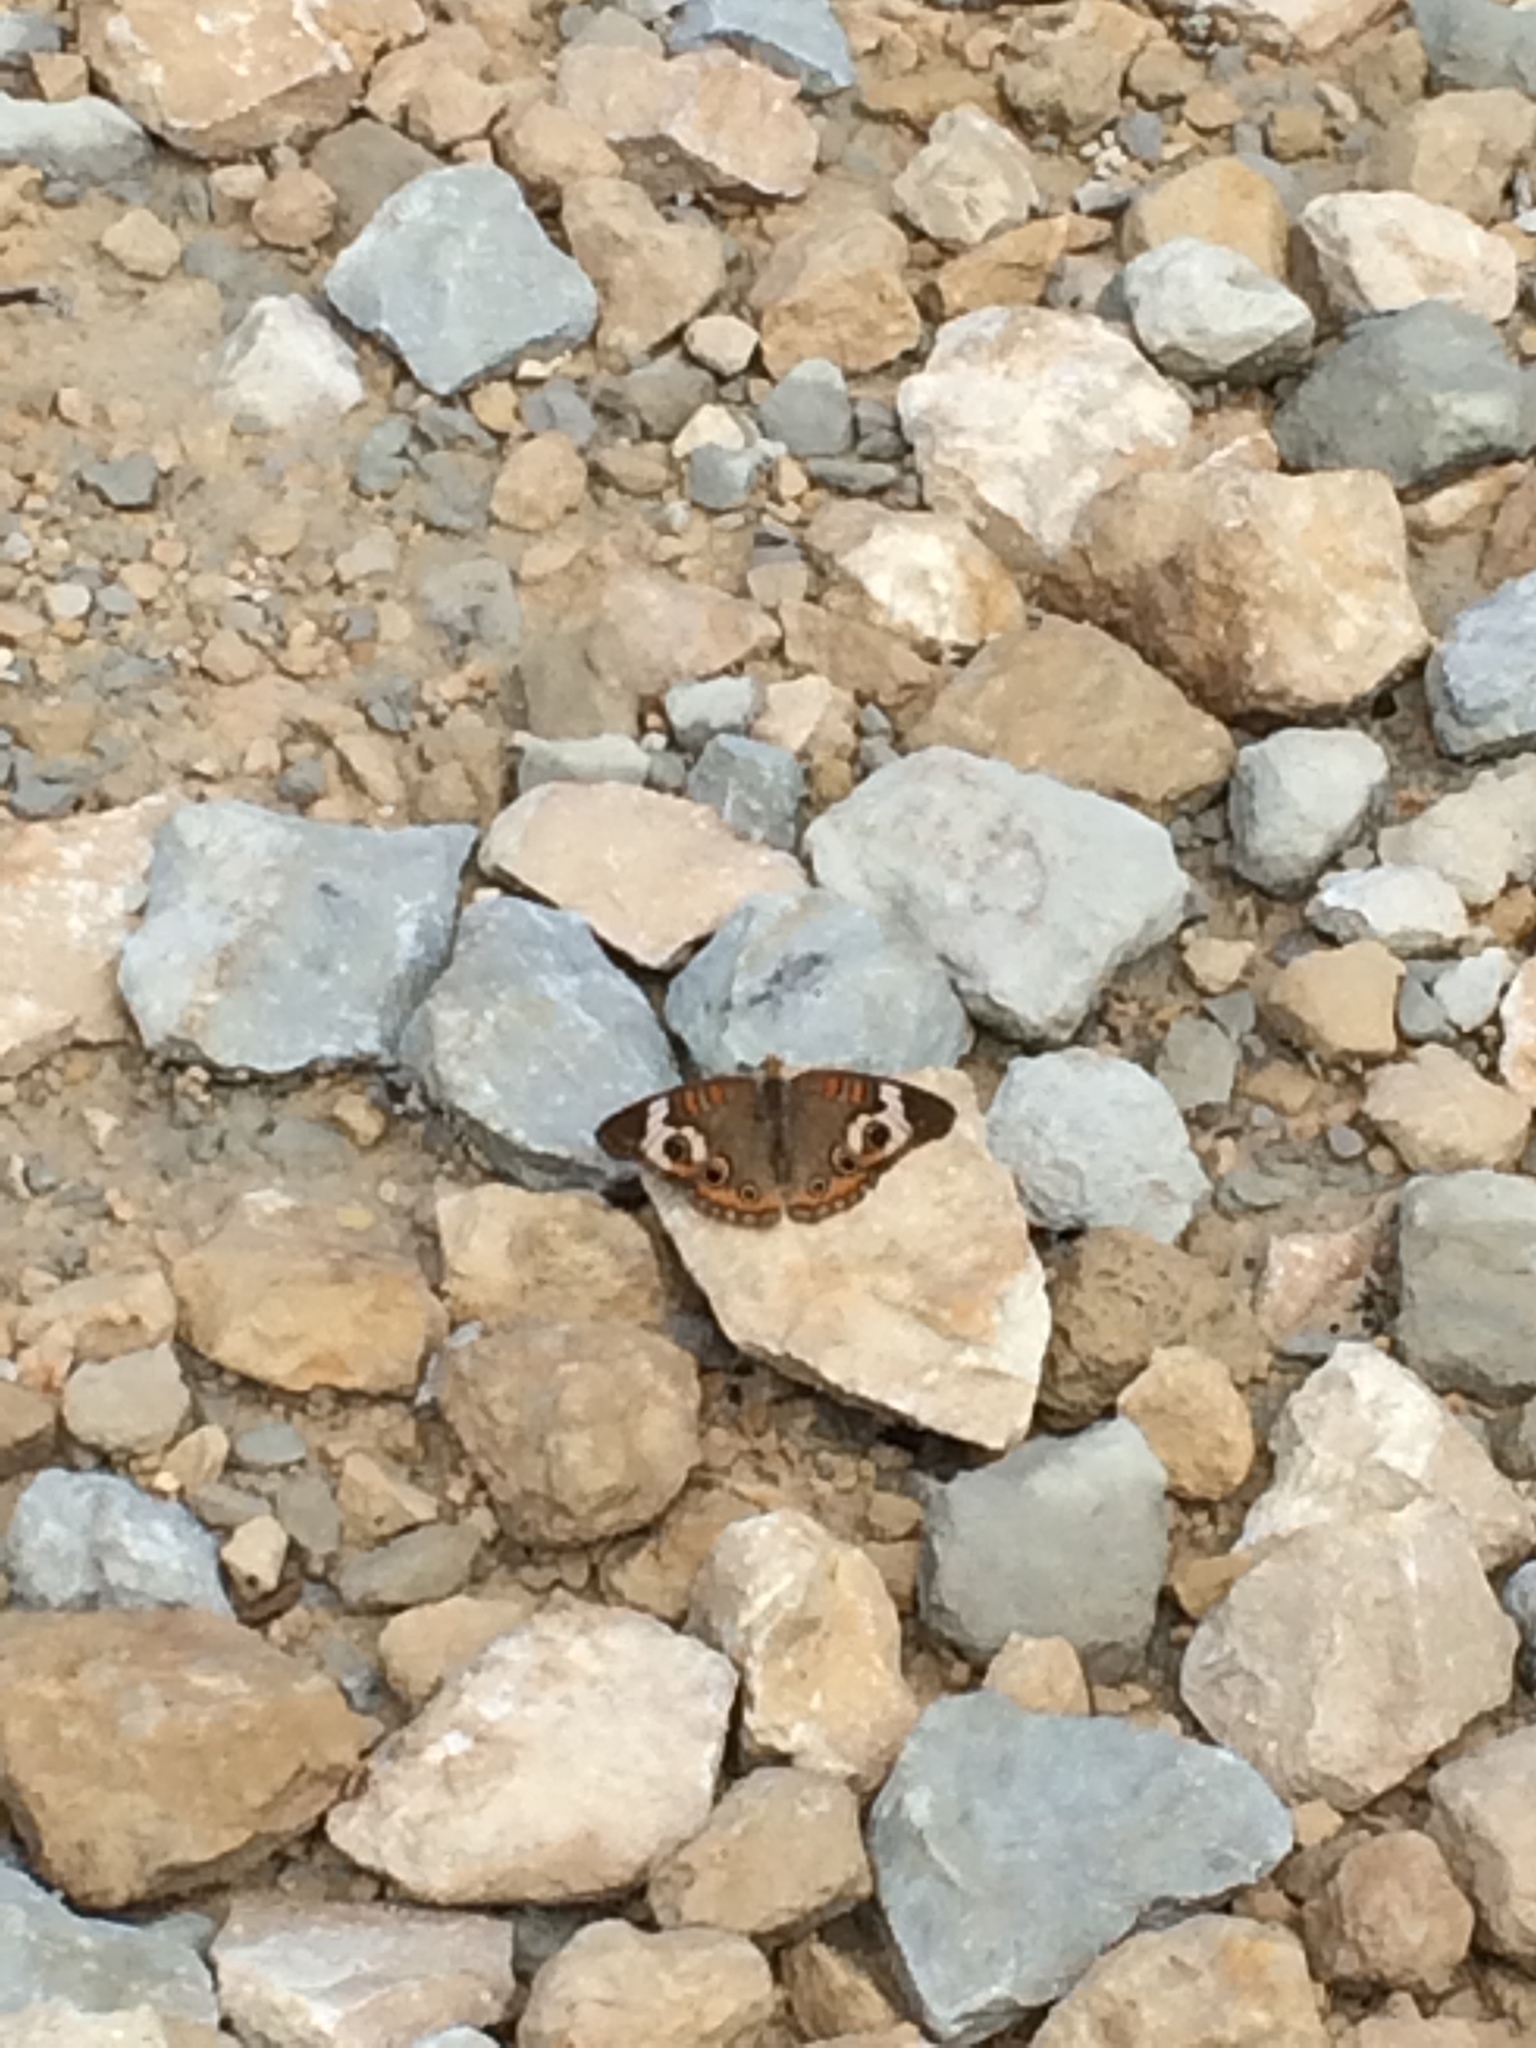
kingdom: Animalia
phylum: Arthropoda
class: Insecta
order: Lepidoptera
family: Nymphalidae
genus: Junonia
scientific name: Junonia coenia
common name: Common buckeye
